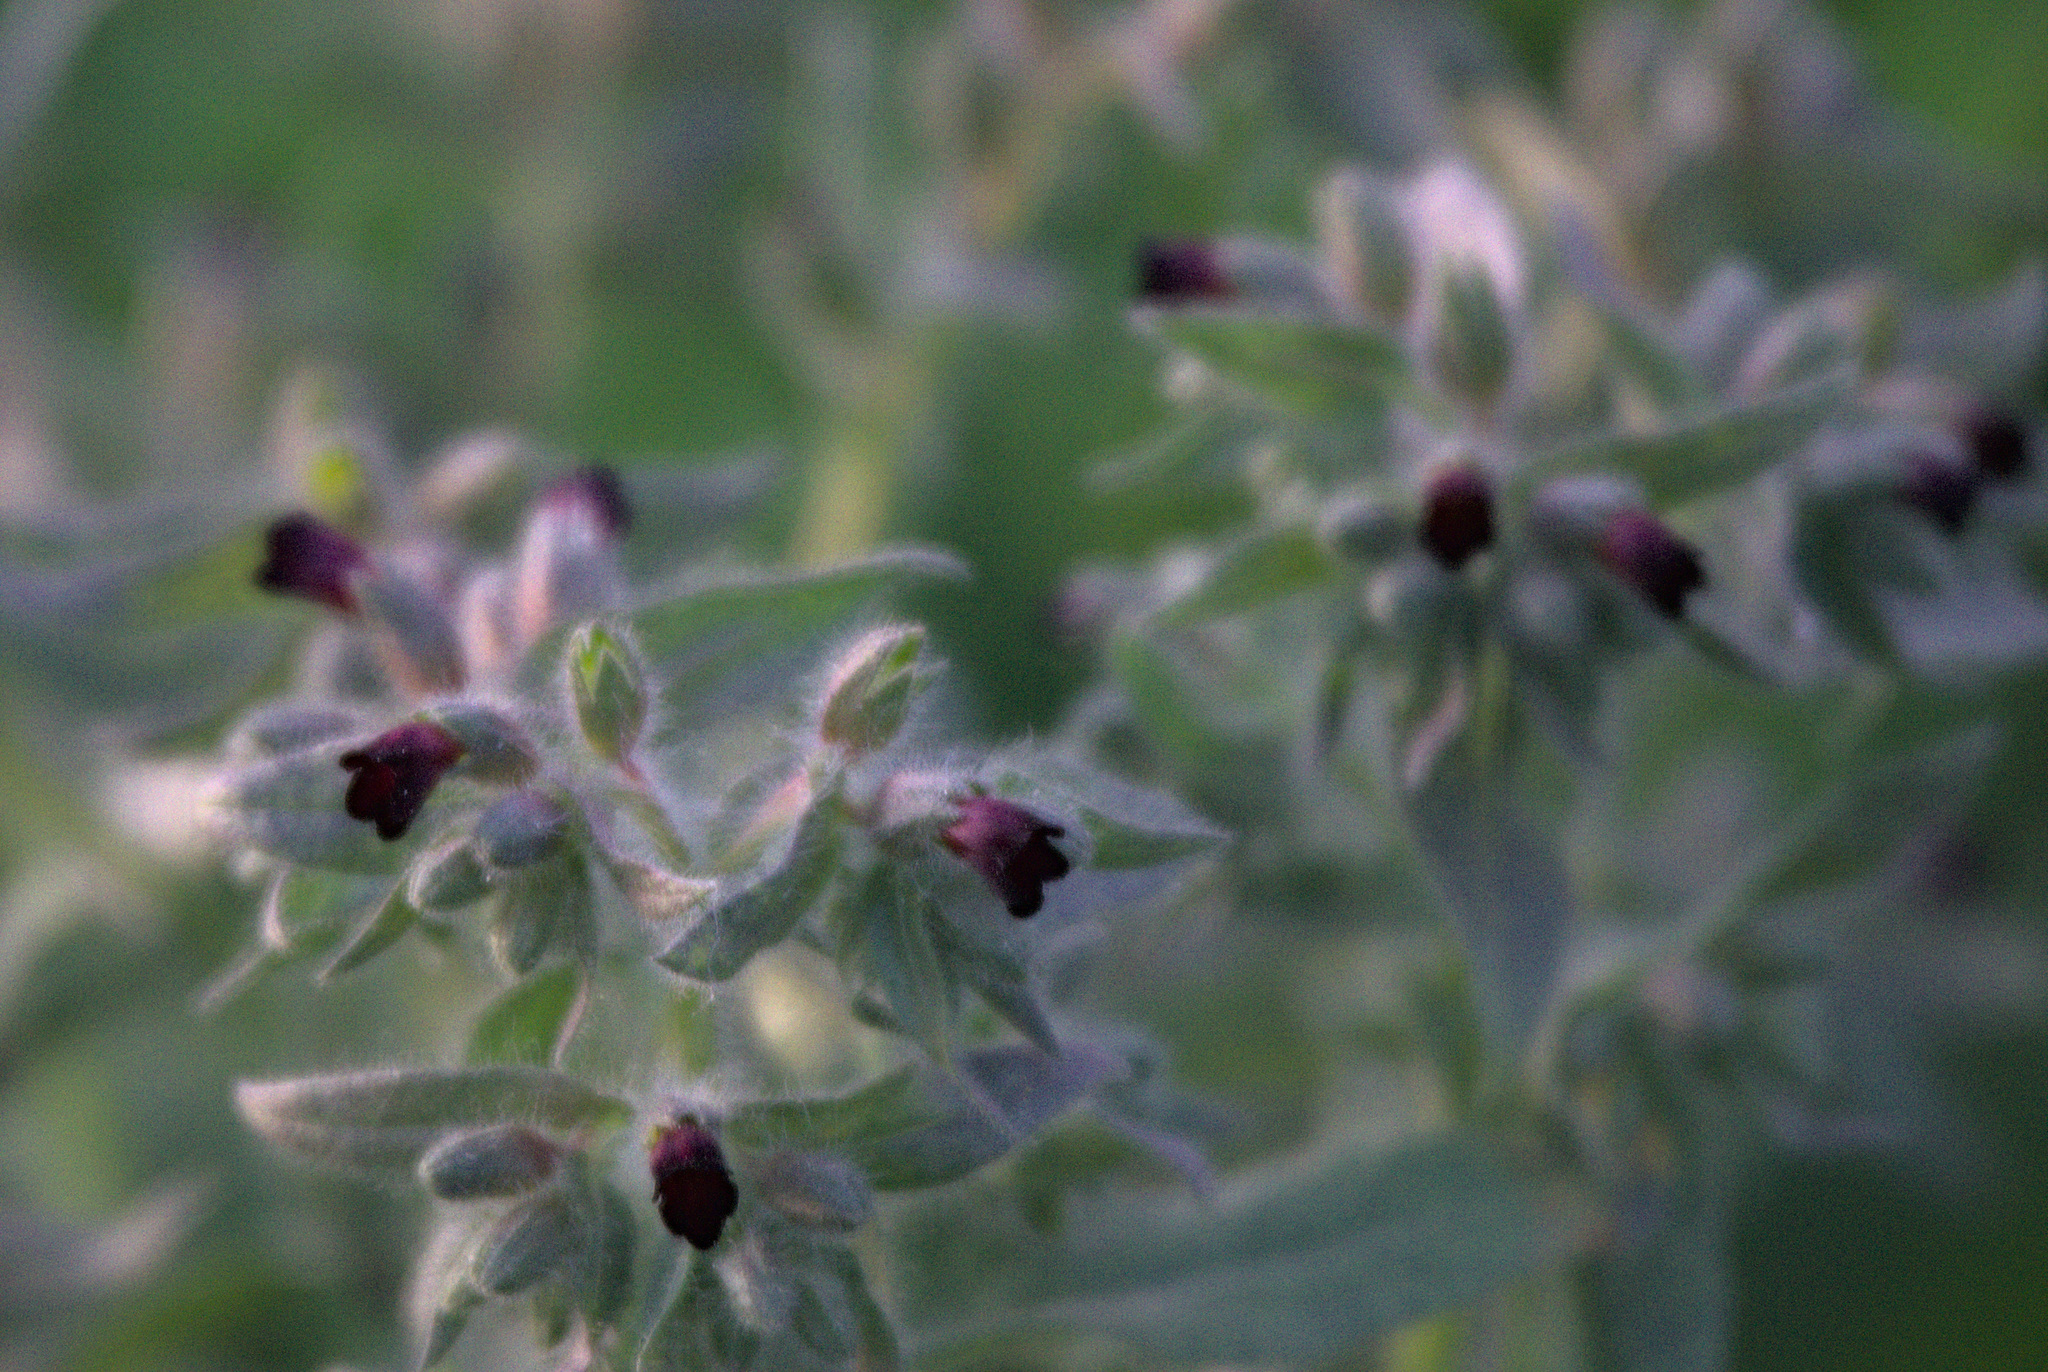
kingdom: Plantae
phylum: Tracheophyta
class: Magnoliopsida
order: Boraginales
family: Boraginaceae
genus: Nonea
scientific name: Nonea pulla
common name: Brown nonea
